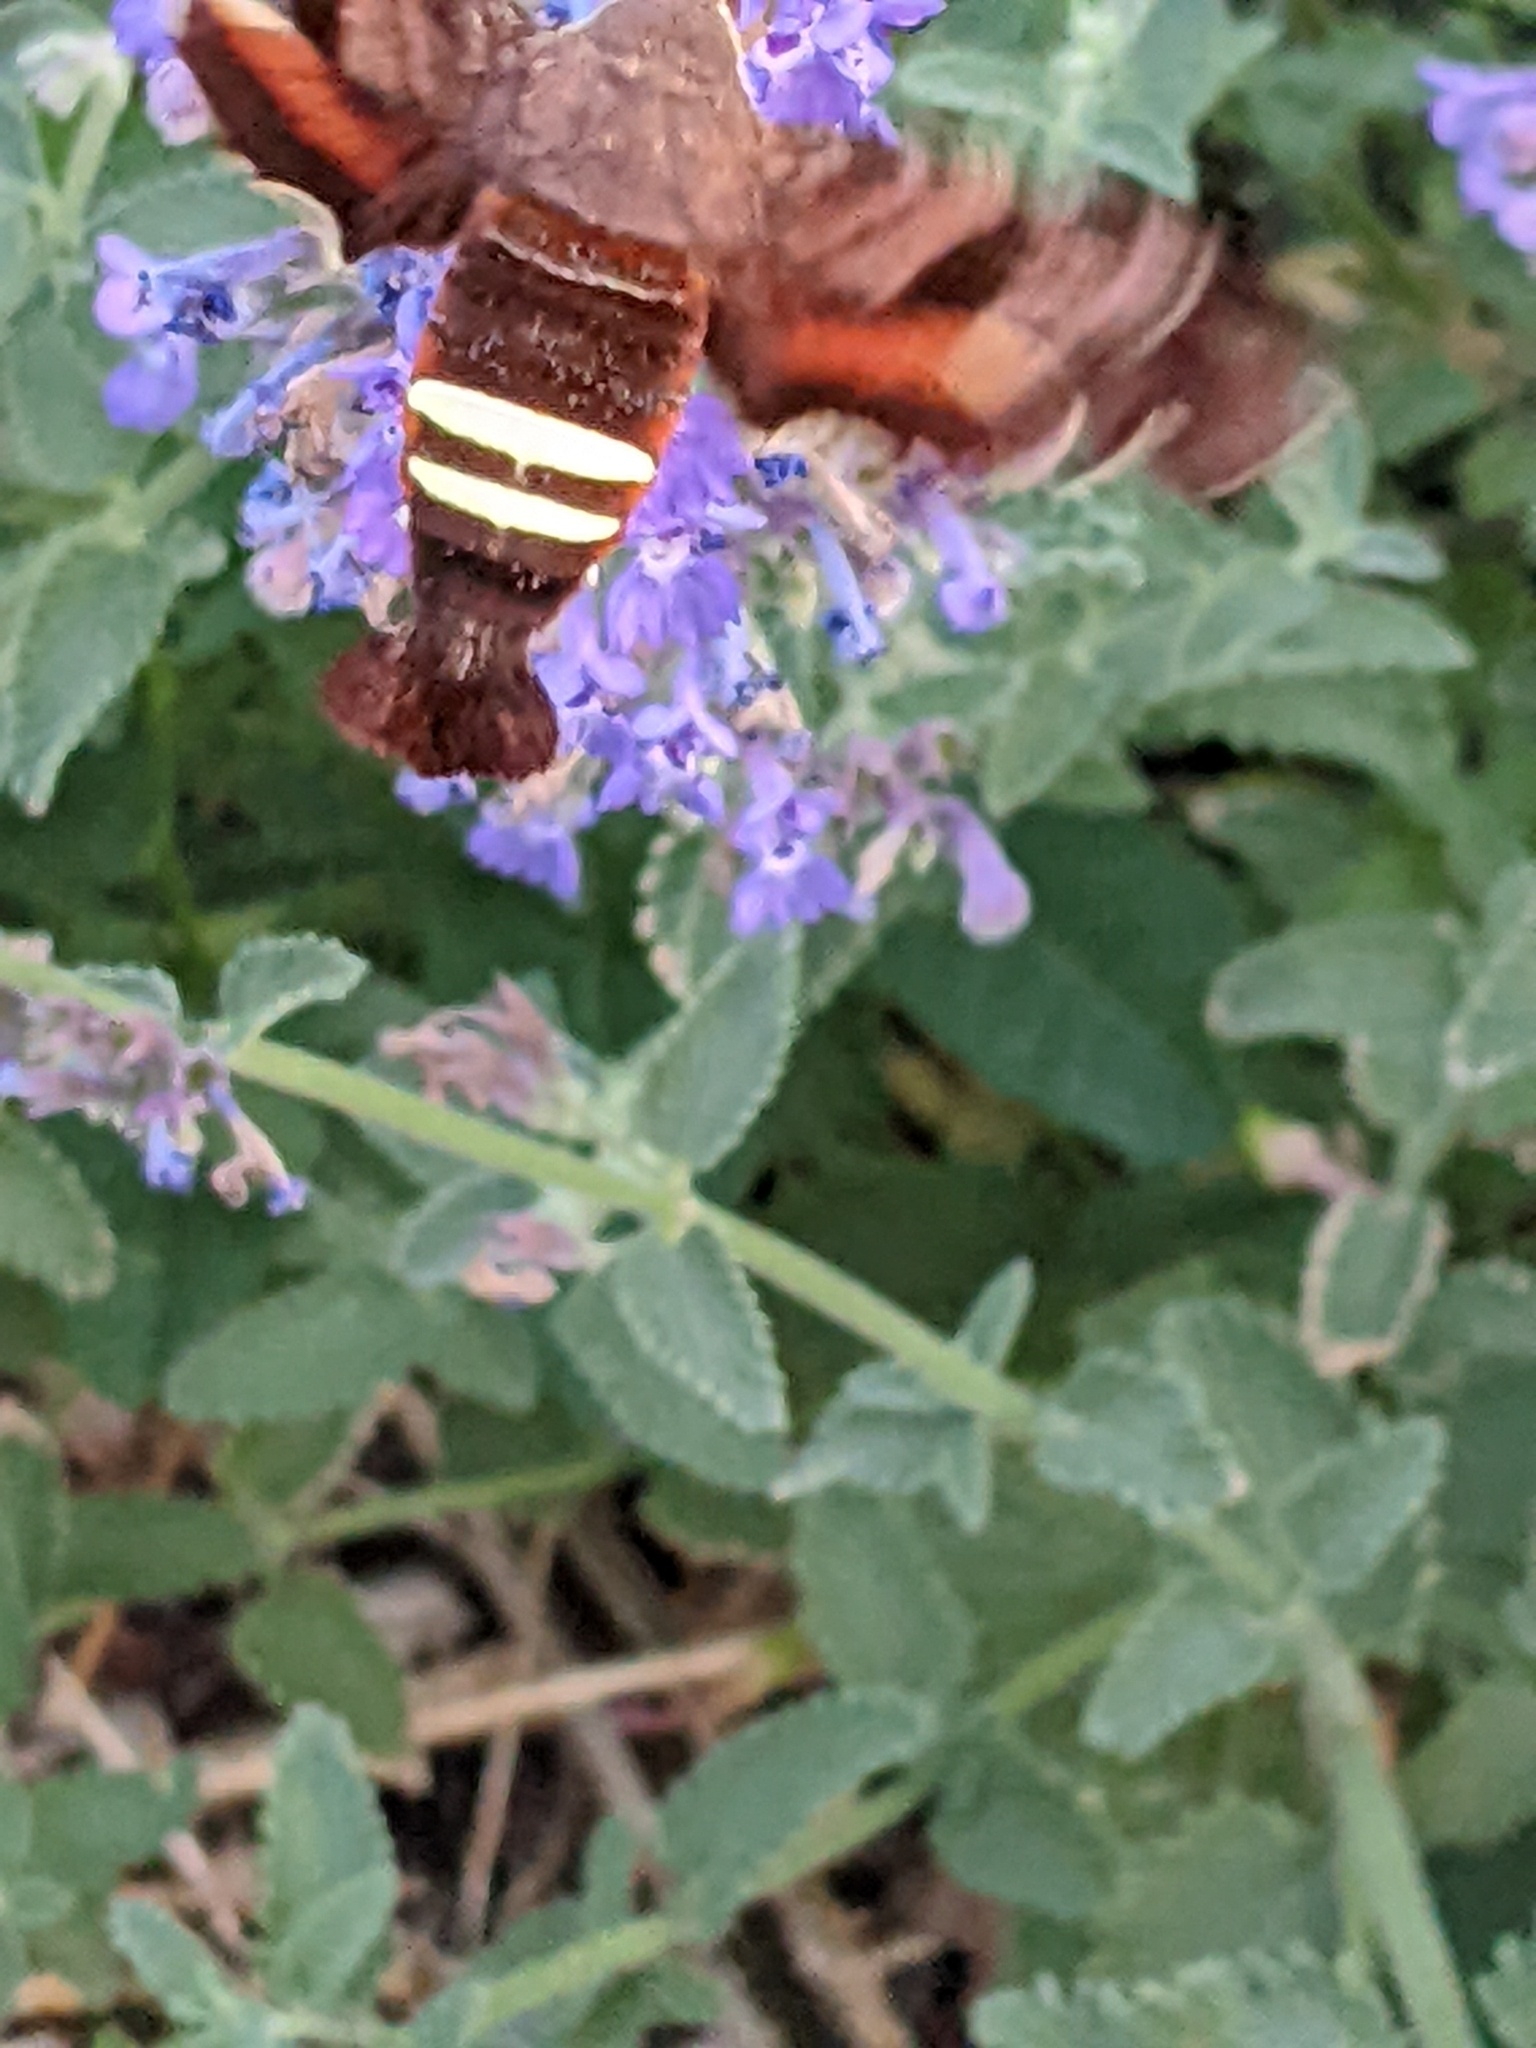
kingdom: Animalia
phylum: Arthropoda
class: Insecta
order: Lepidoptera
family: Sphingidae
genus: Amphion
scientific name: Amphion floridensis
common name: Nessus sphinx
